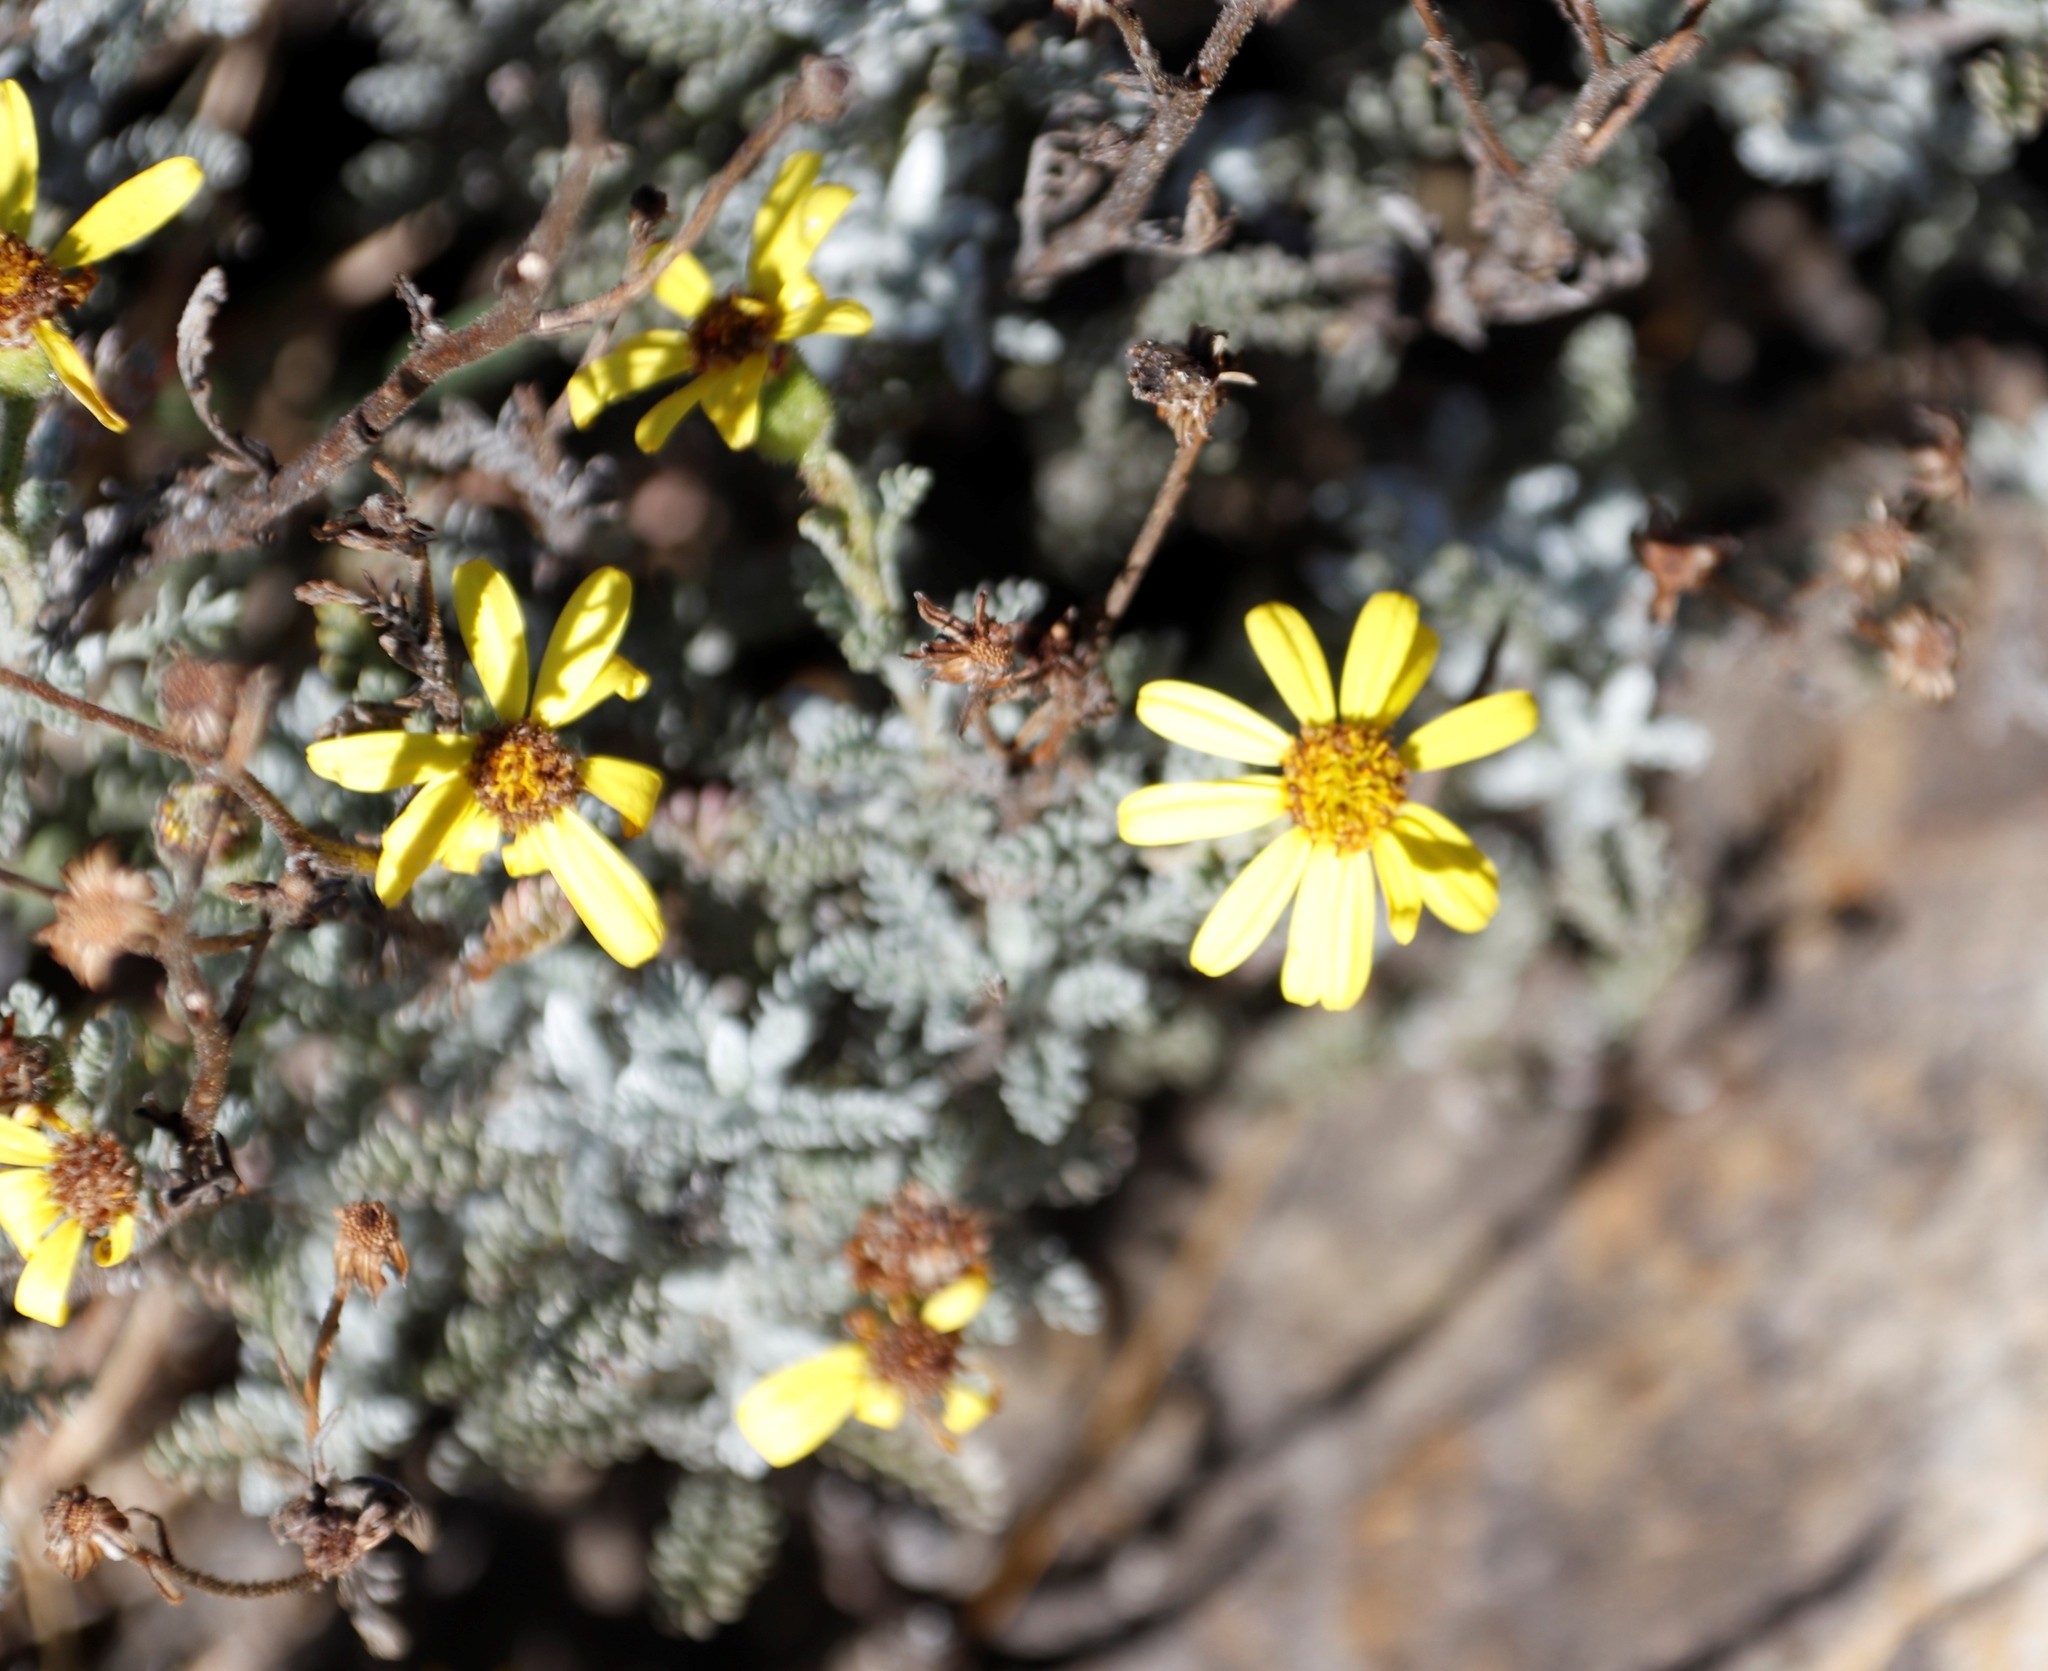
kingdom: Plantae
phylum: Tracheophyta
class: Magnoliopsida
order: Asterales
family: Asteraceae
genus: Senecio
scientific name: Senecio seminiveus
